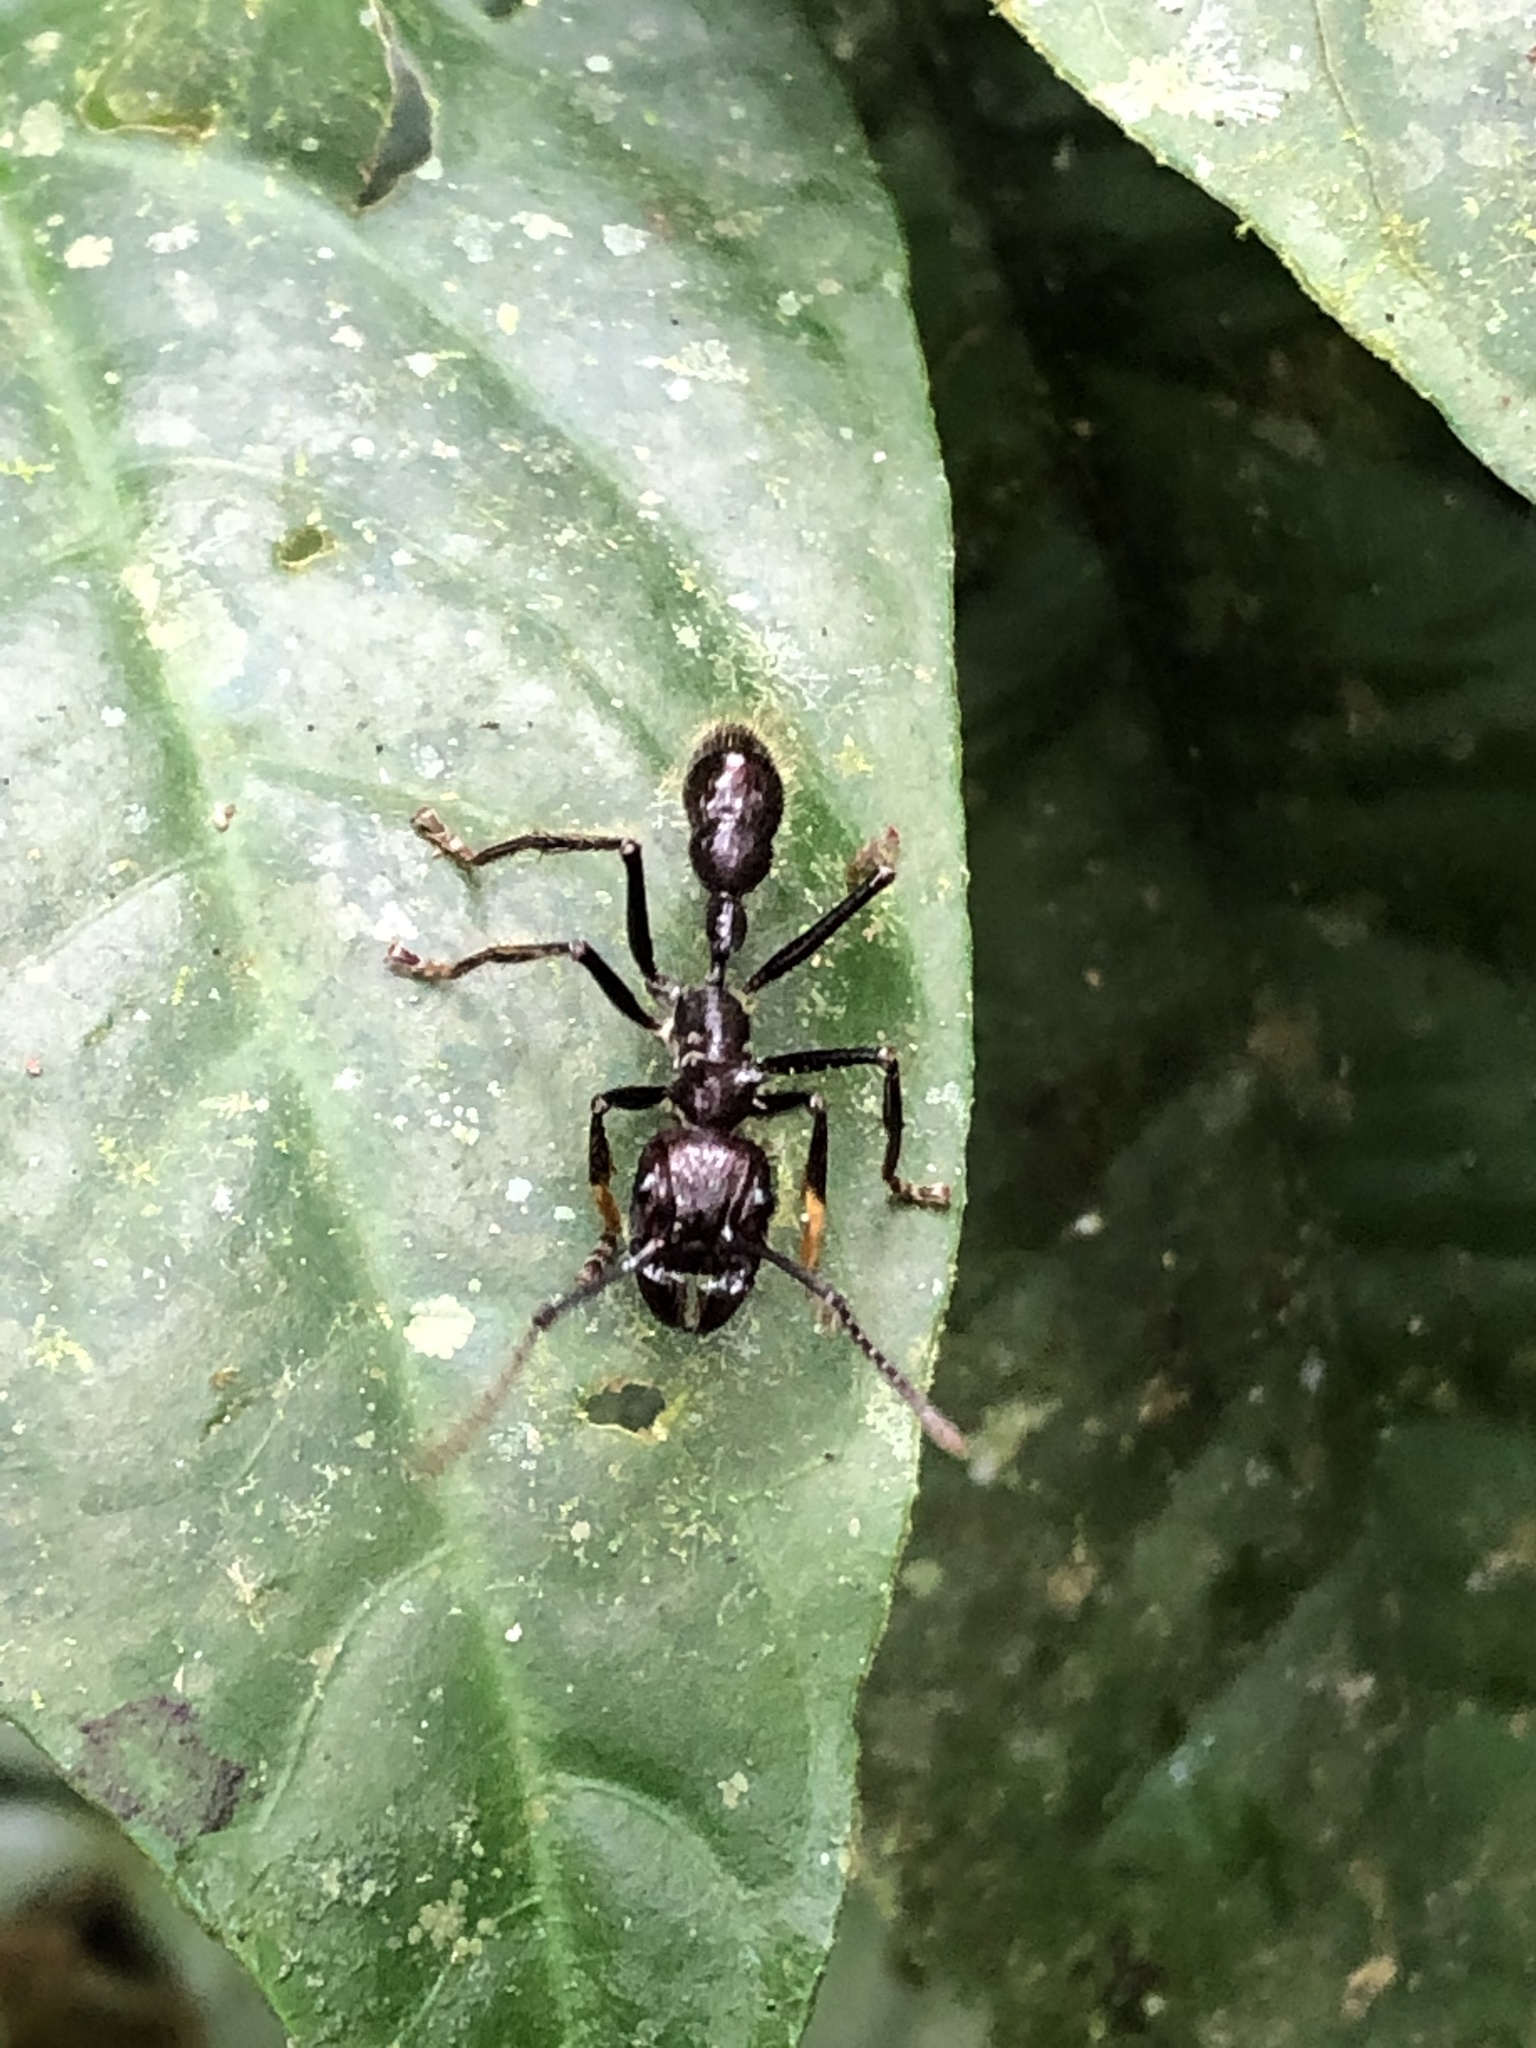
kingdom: Animalia
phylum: Arthropoda
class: Insecta
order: Hymenoptera
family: Formicidae
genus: Paraponera
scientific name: Paraponera clavata
